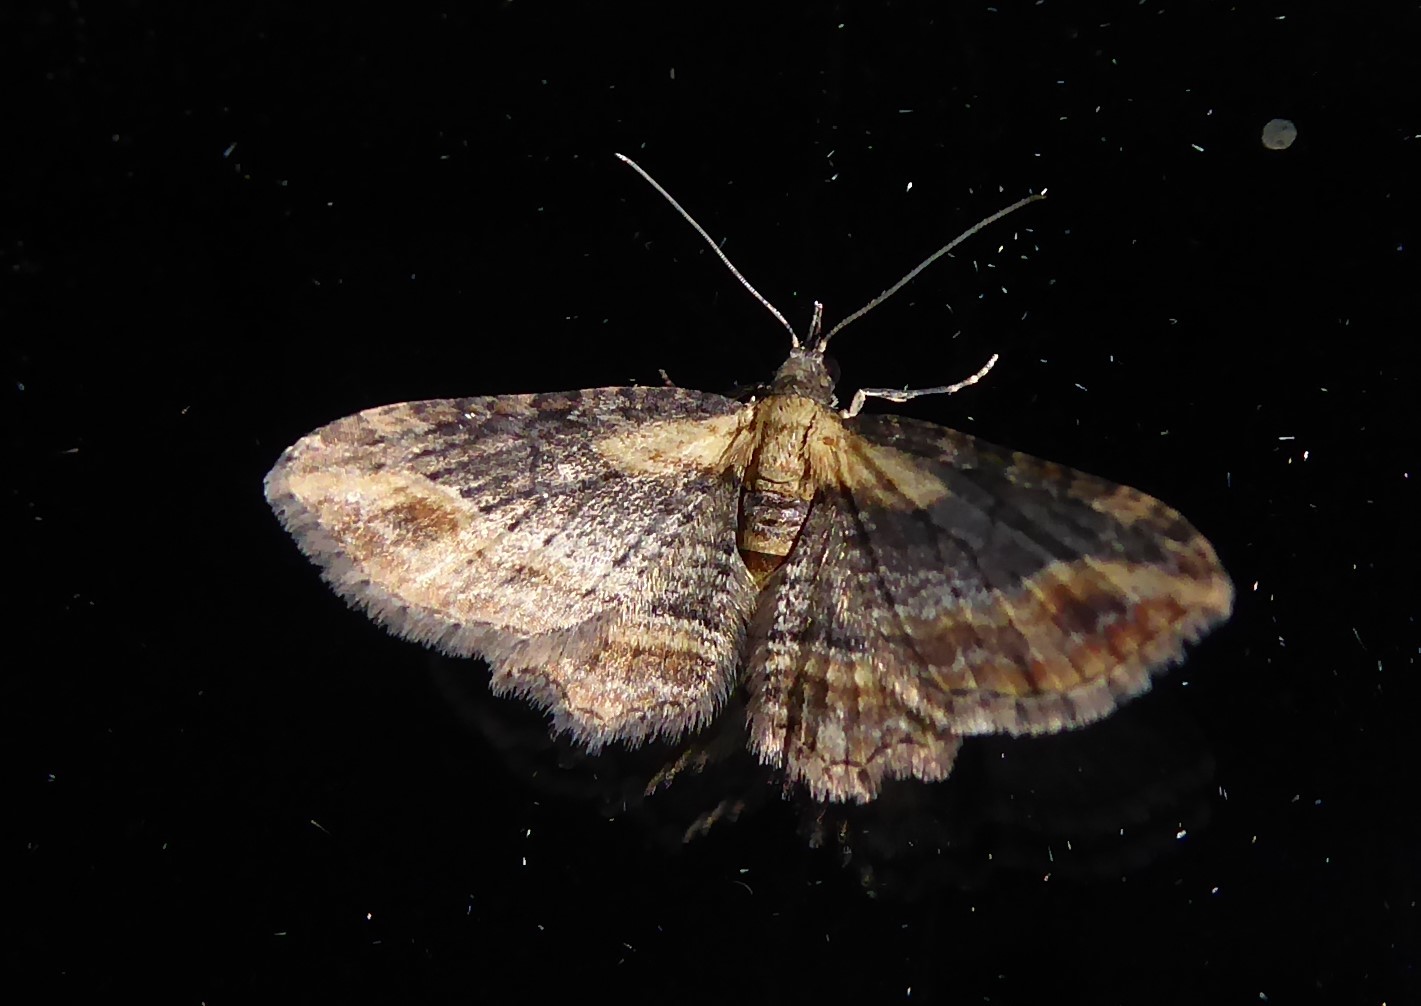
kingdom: Animalia
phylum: Arthropoda
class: Insecta
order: Lepidoptera
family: Geometridae
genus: Chloroclystis
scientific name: Chloroclystis filata
